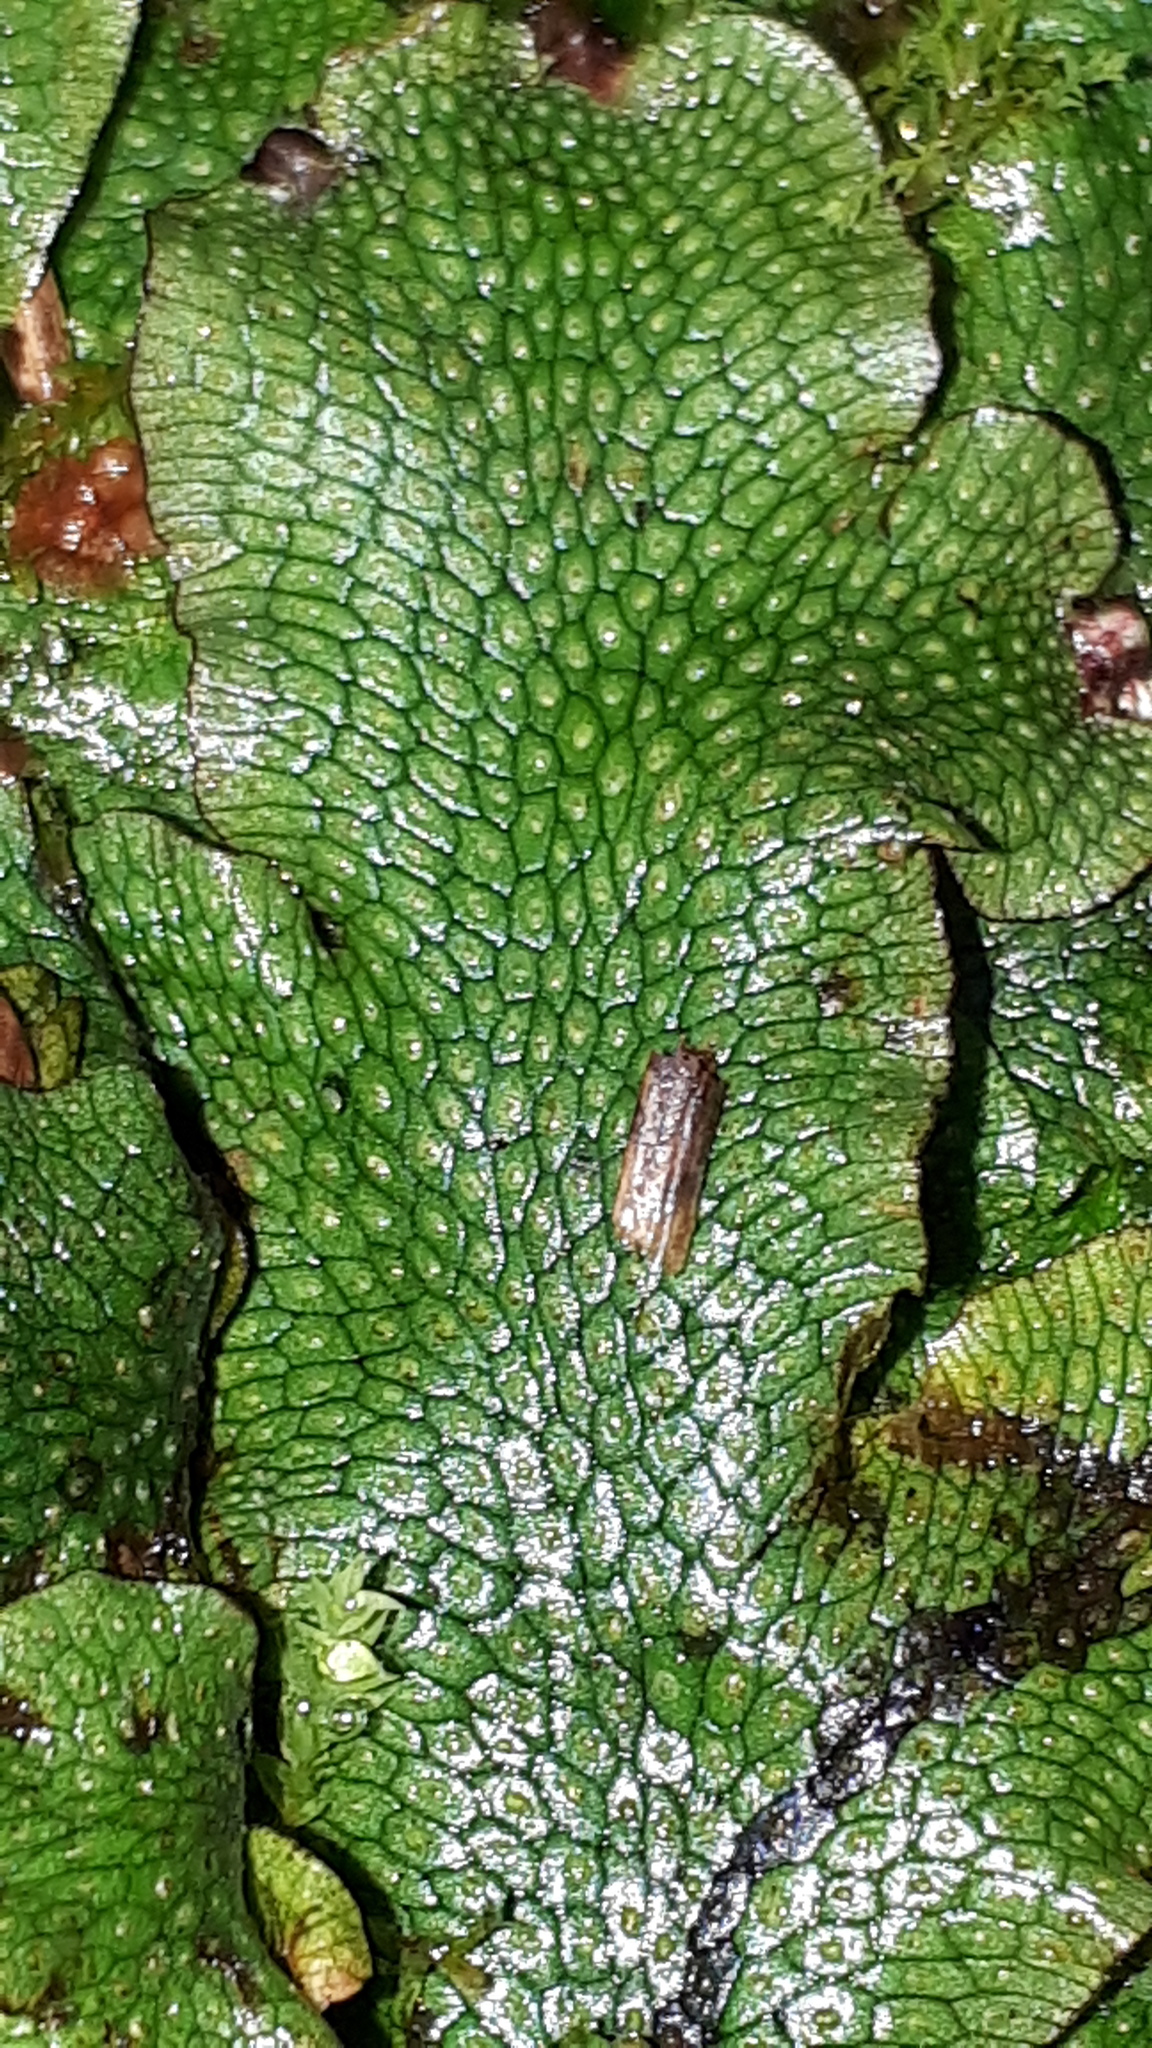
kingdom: Plantae
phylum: Marchantiophyta
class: Marchantiopsida
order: Marchantiales
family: Conocephalaceae
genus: Conocephalum
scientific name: Conocephalum conicum
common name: Great scented liverwort
